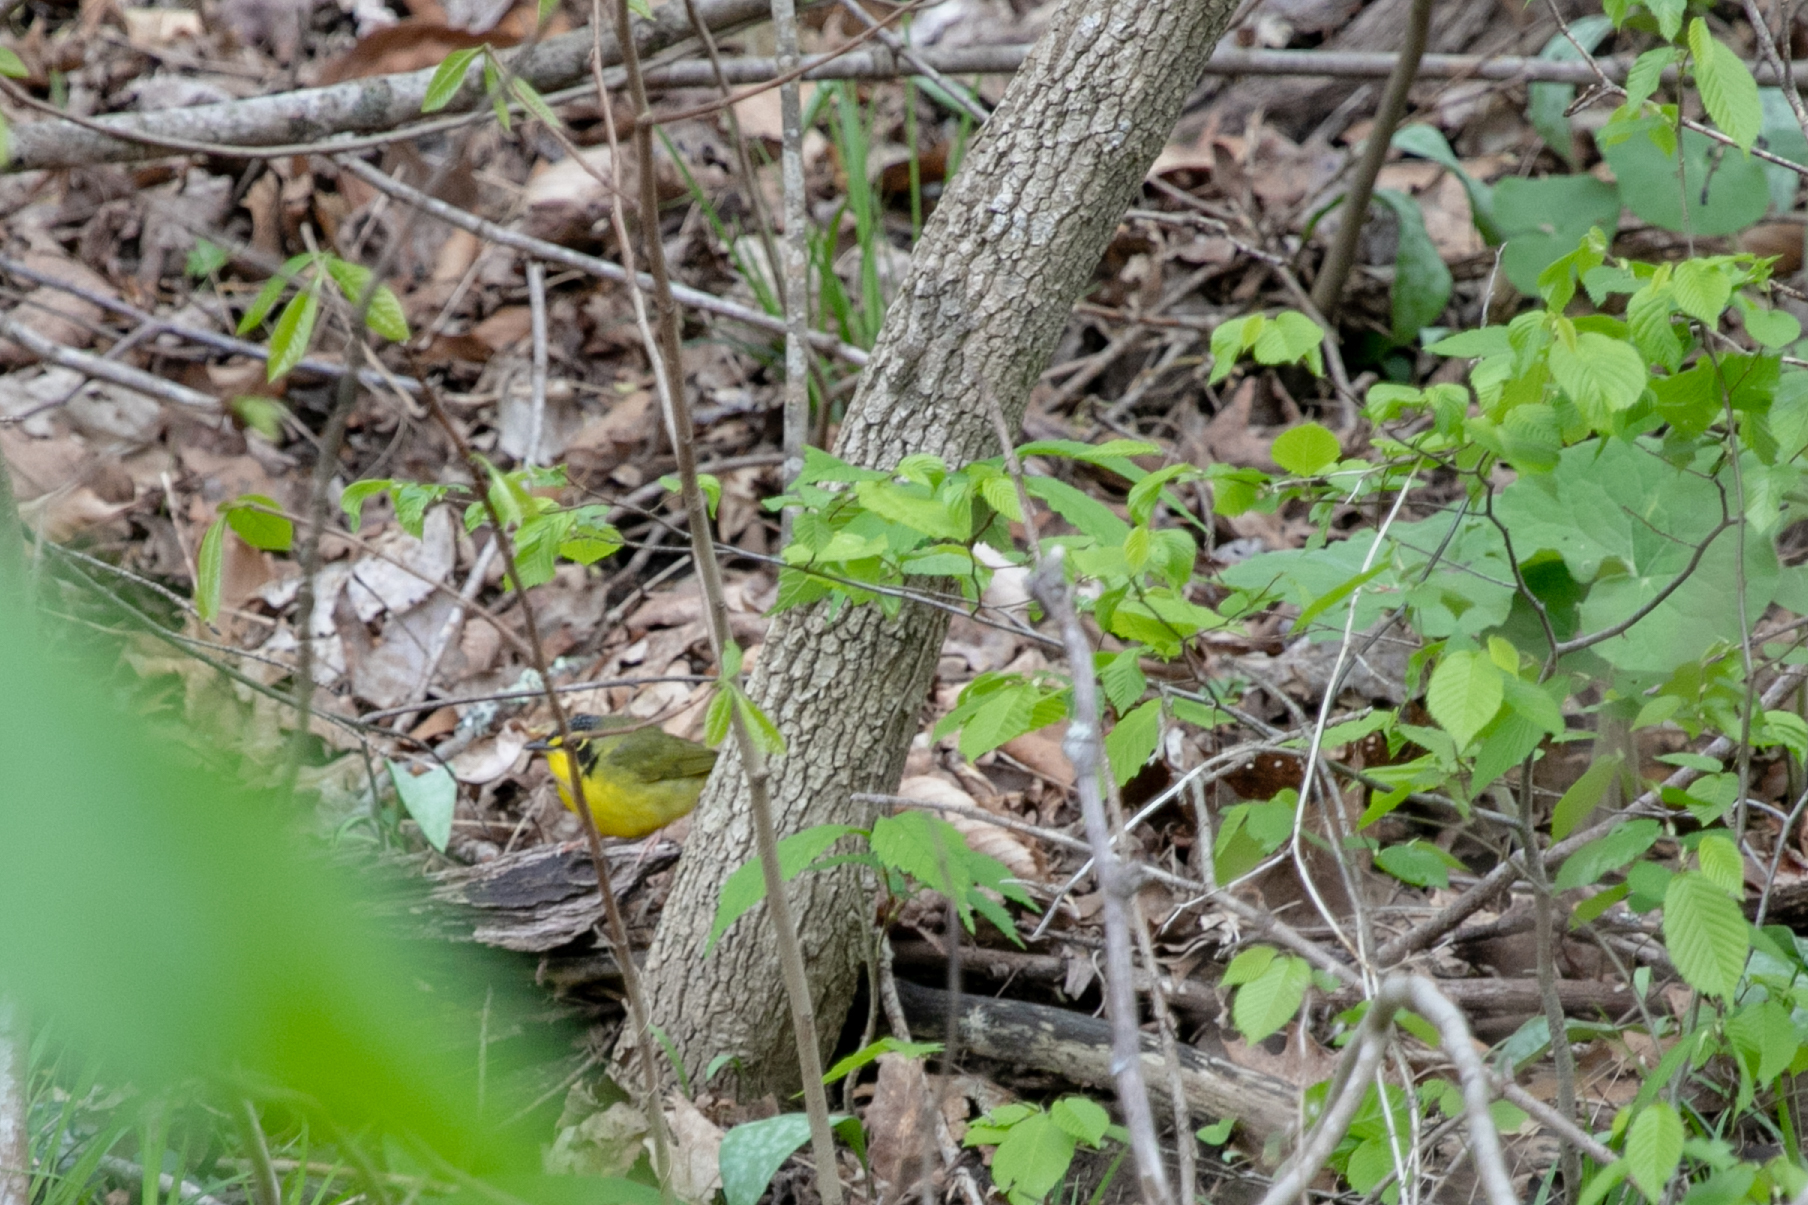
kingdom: Animalia
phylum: Chordata
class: Aves
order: Passeriformes
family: Parulidae
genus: Geothlypis
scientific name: Geothlypis formosa
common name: Kentucky warbler
